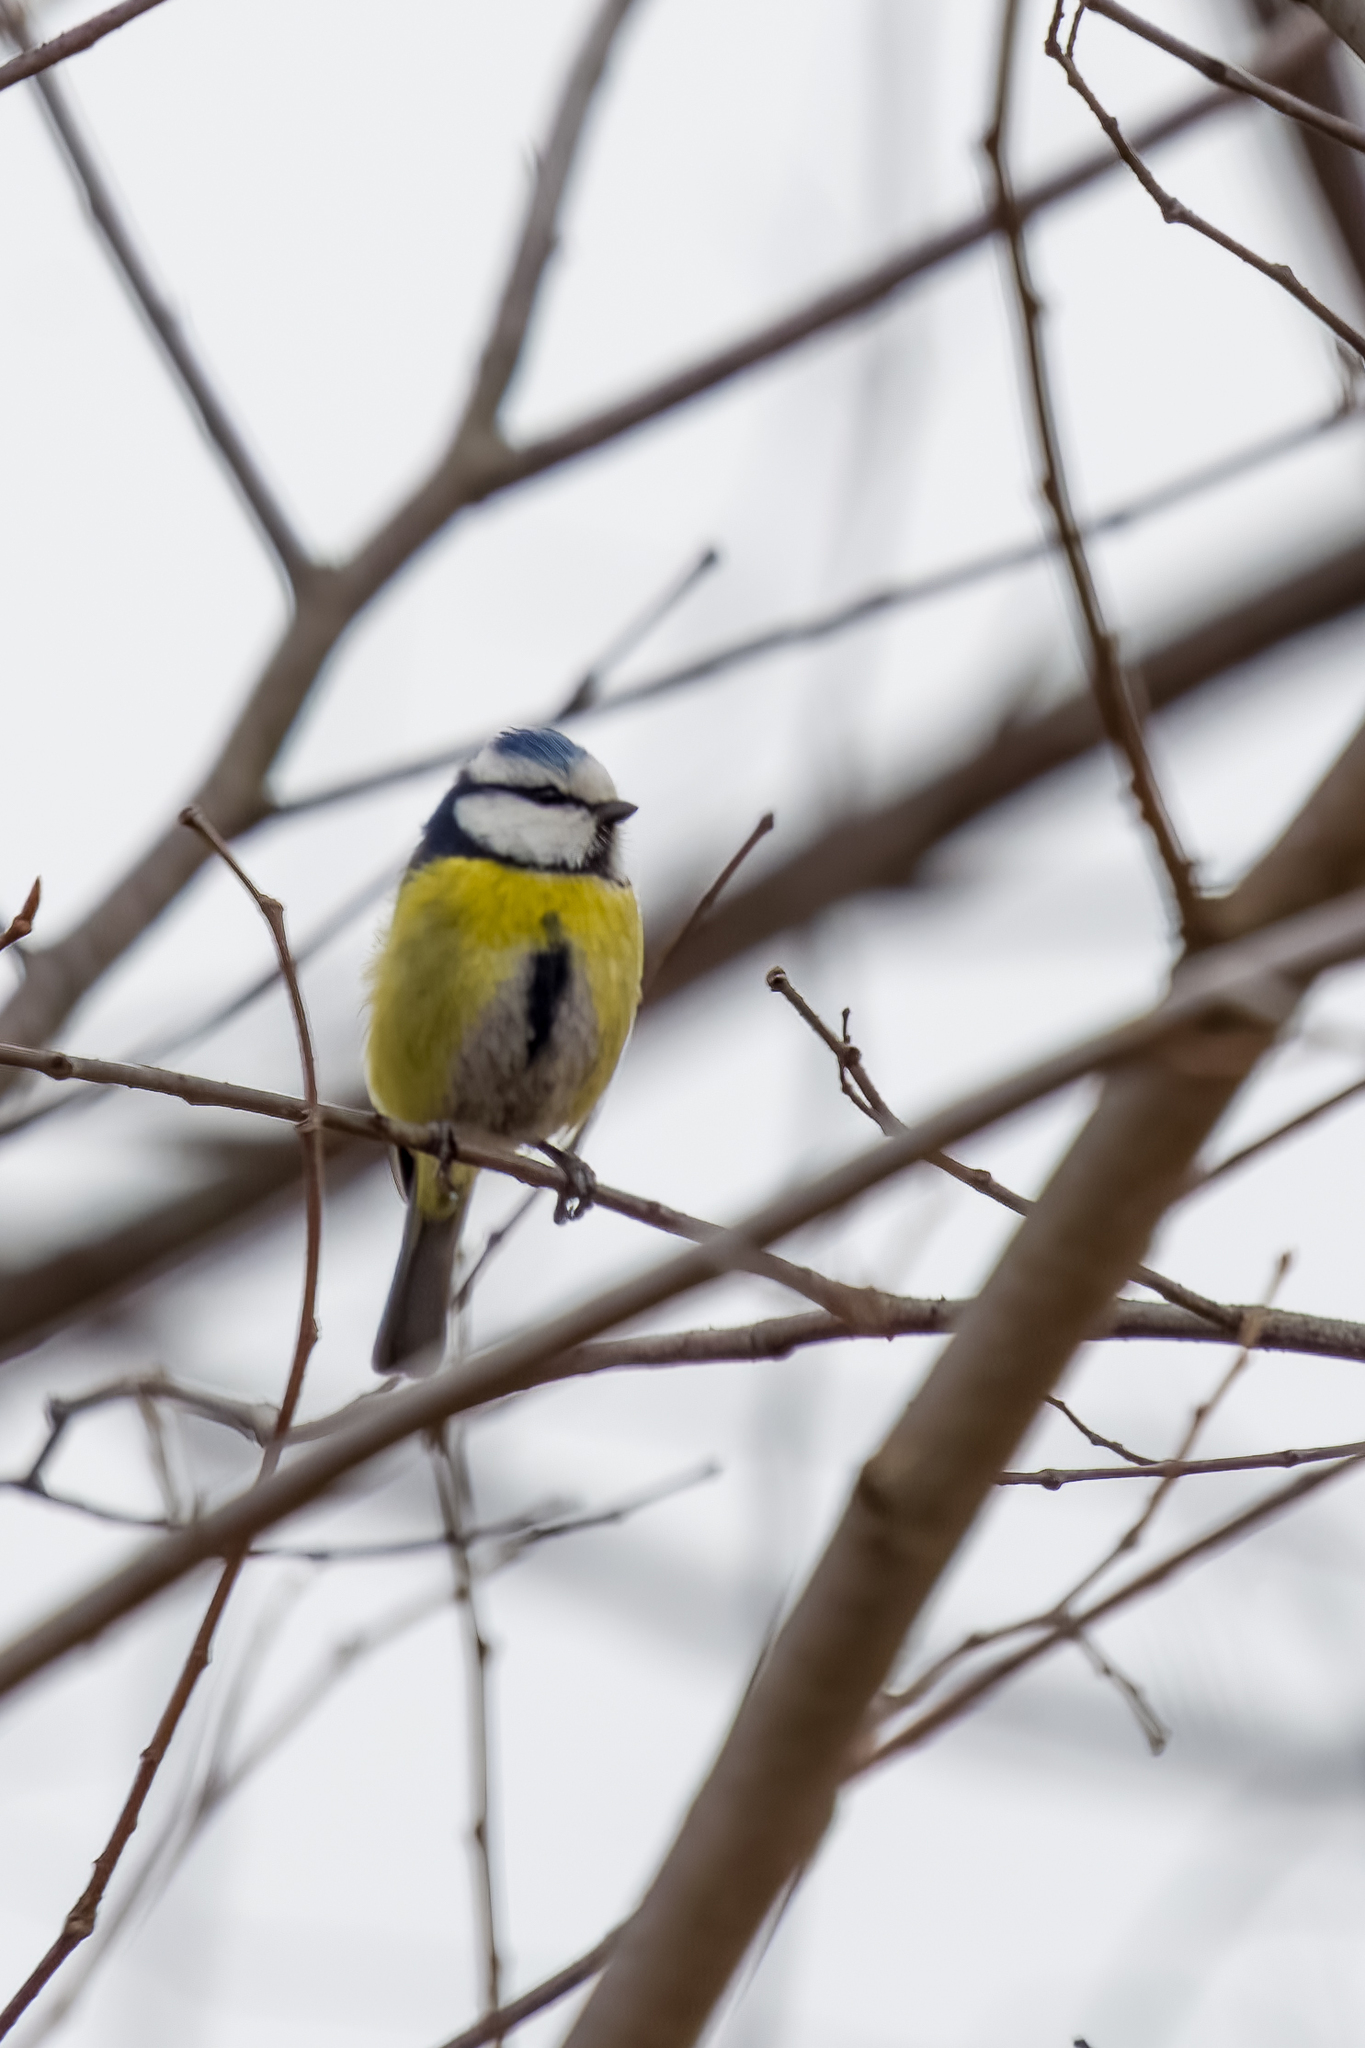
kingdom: Animalia
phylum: Chordata
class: Aves
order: Passeriformes
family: Paridae
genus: Cyanistes
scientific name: Cyanistes caeruleus
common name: Eurasian blue tit
